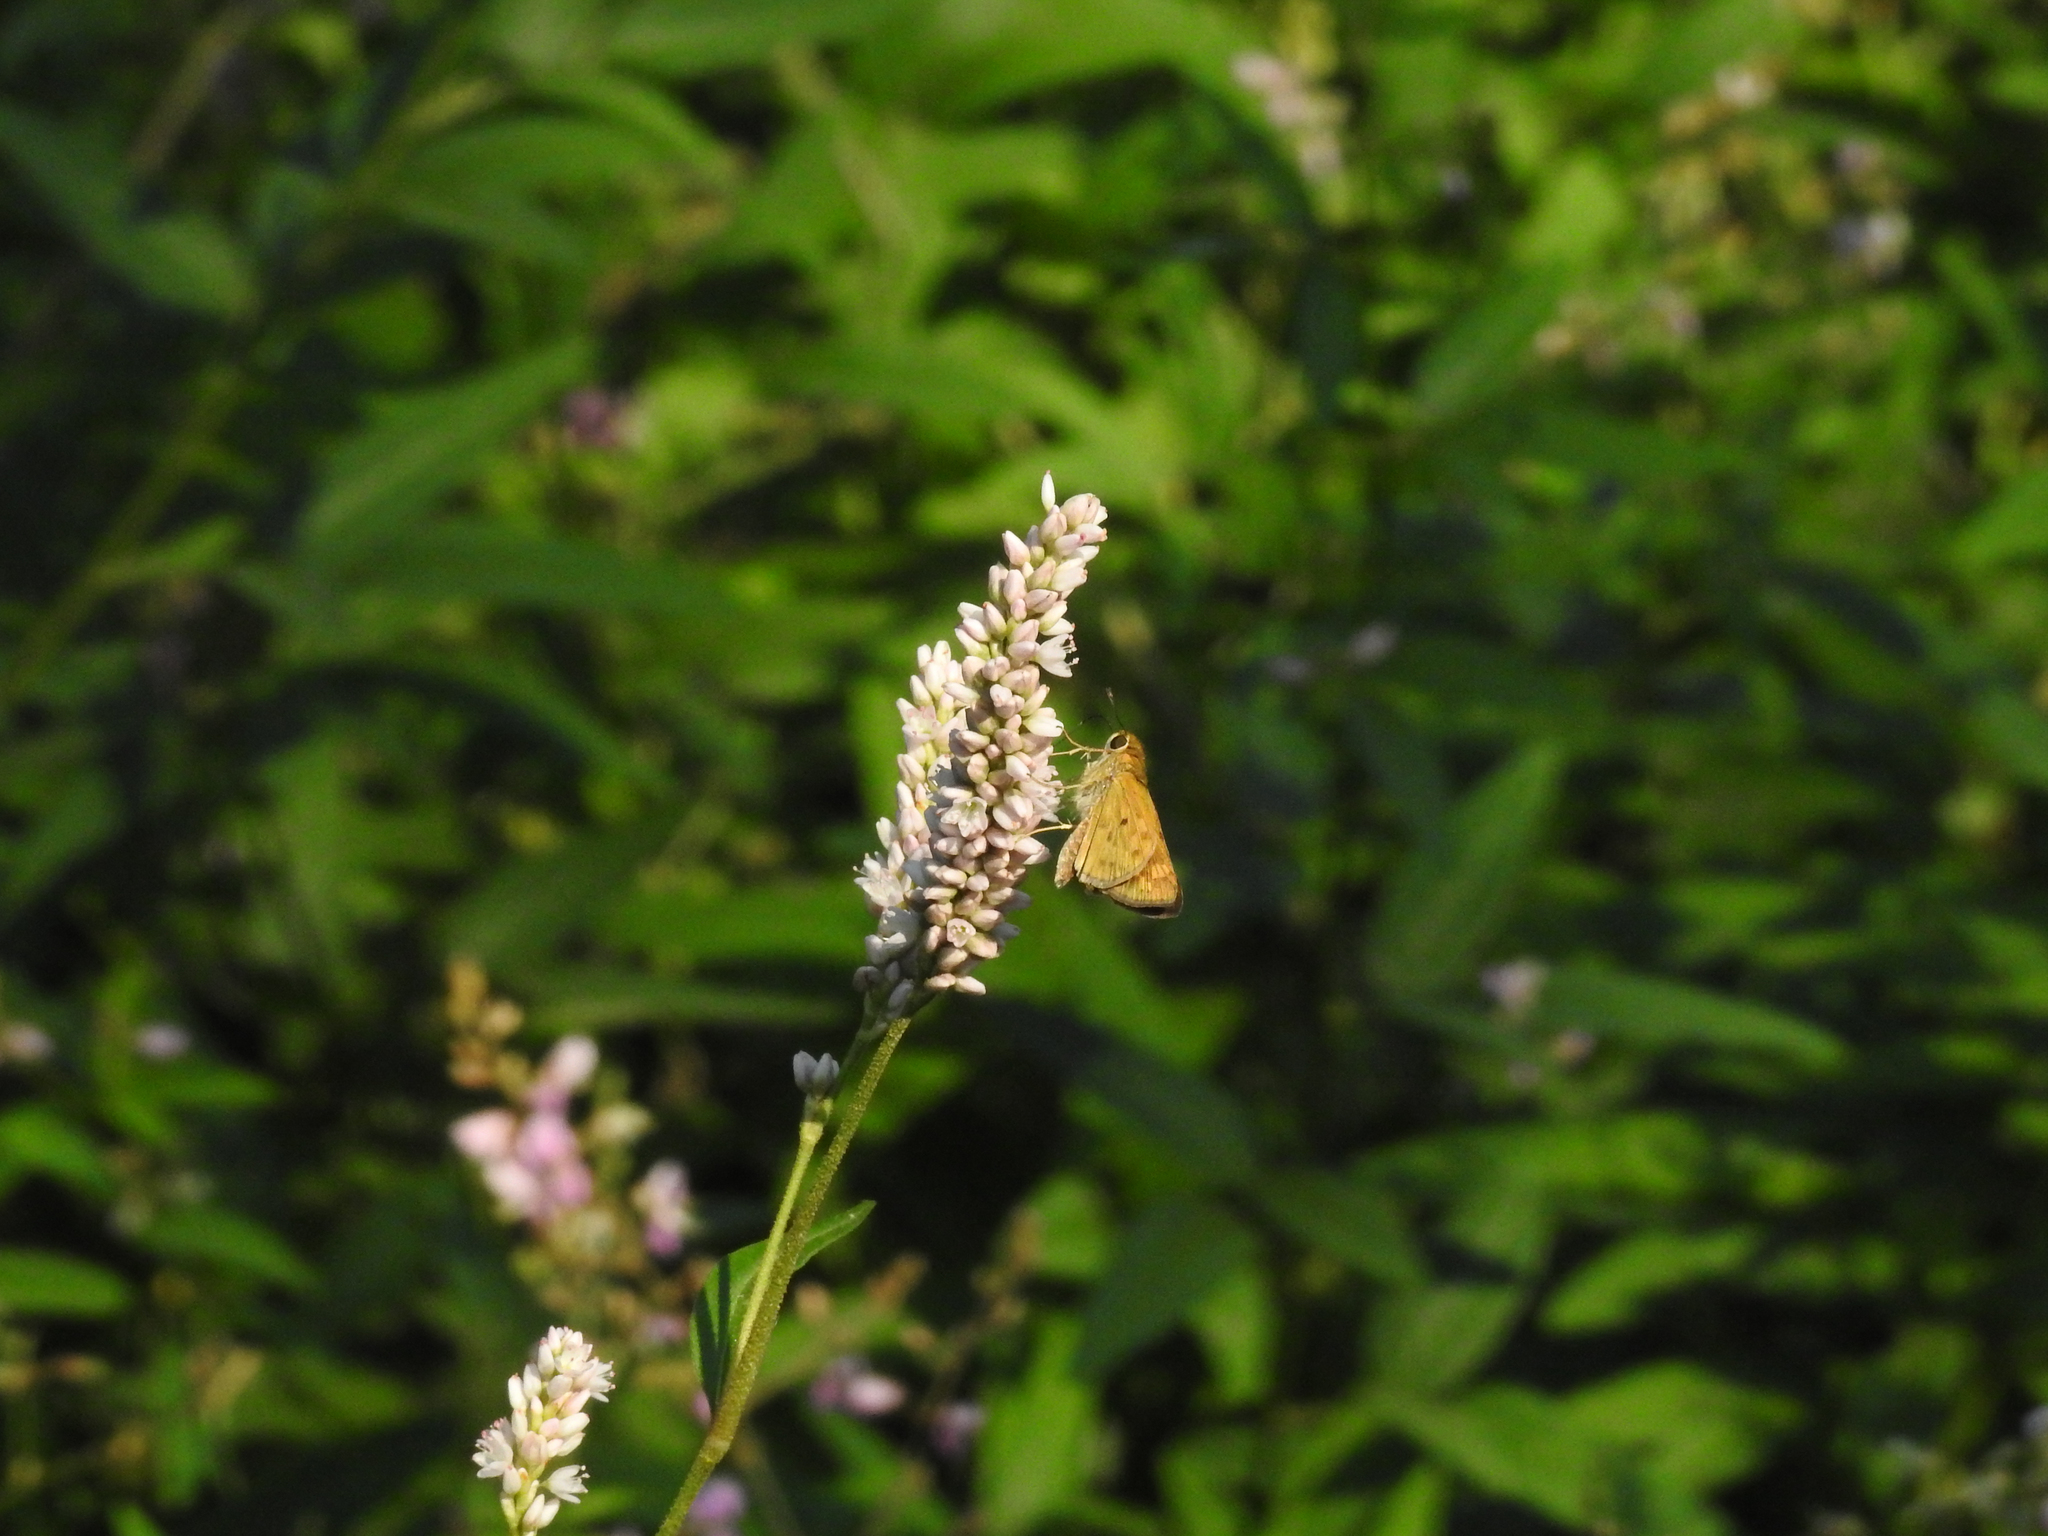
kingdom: Animalia
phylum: Arthropoda
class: Insecta
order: Lepidoptera
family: Hesperiidae
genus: Hylephila
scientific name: Hylephila phyleus
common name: Fiery skipper
